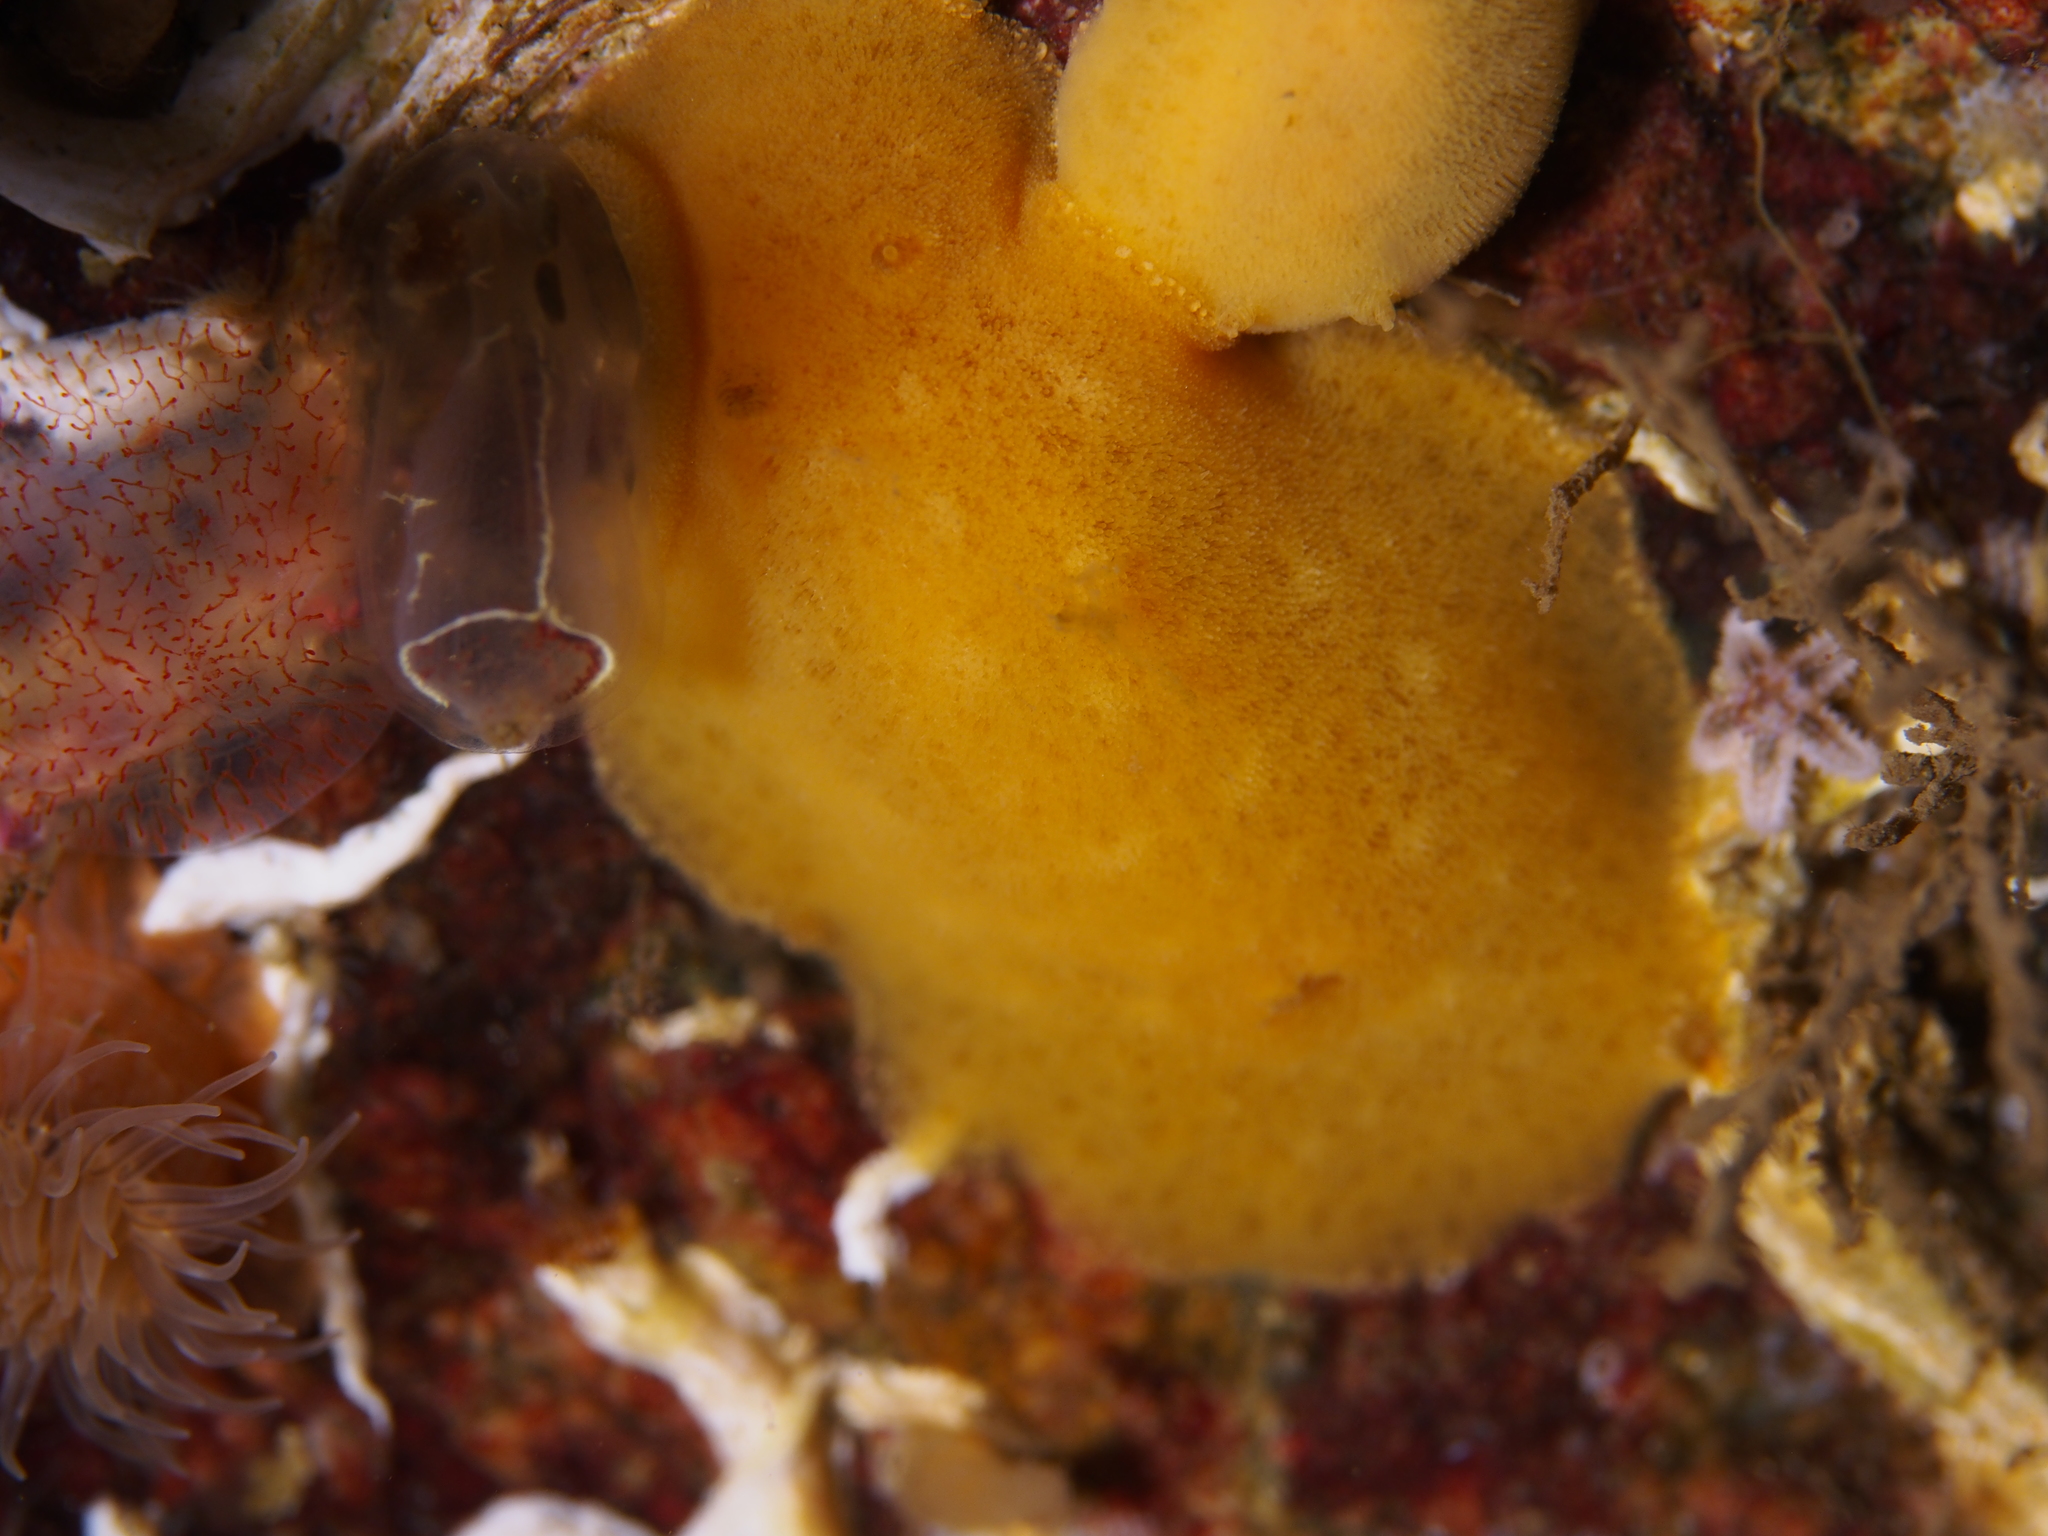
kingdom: Animalia
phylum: Mollusca
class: Gastropoda
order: Nudibranchia
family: Discodorididae
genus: Jorunna
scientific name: Jorunna tomentosa
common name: Grey sea slug
